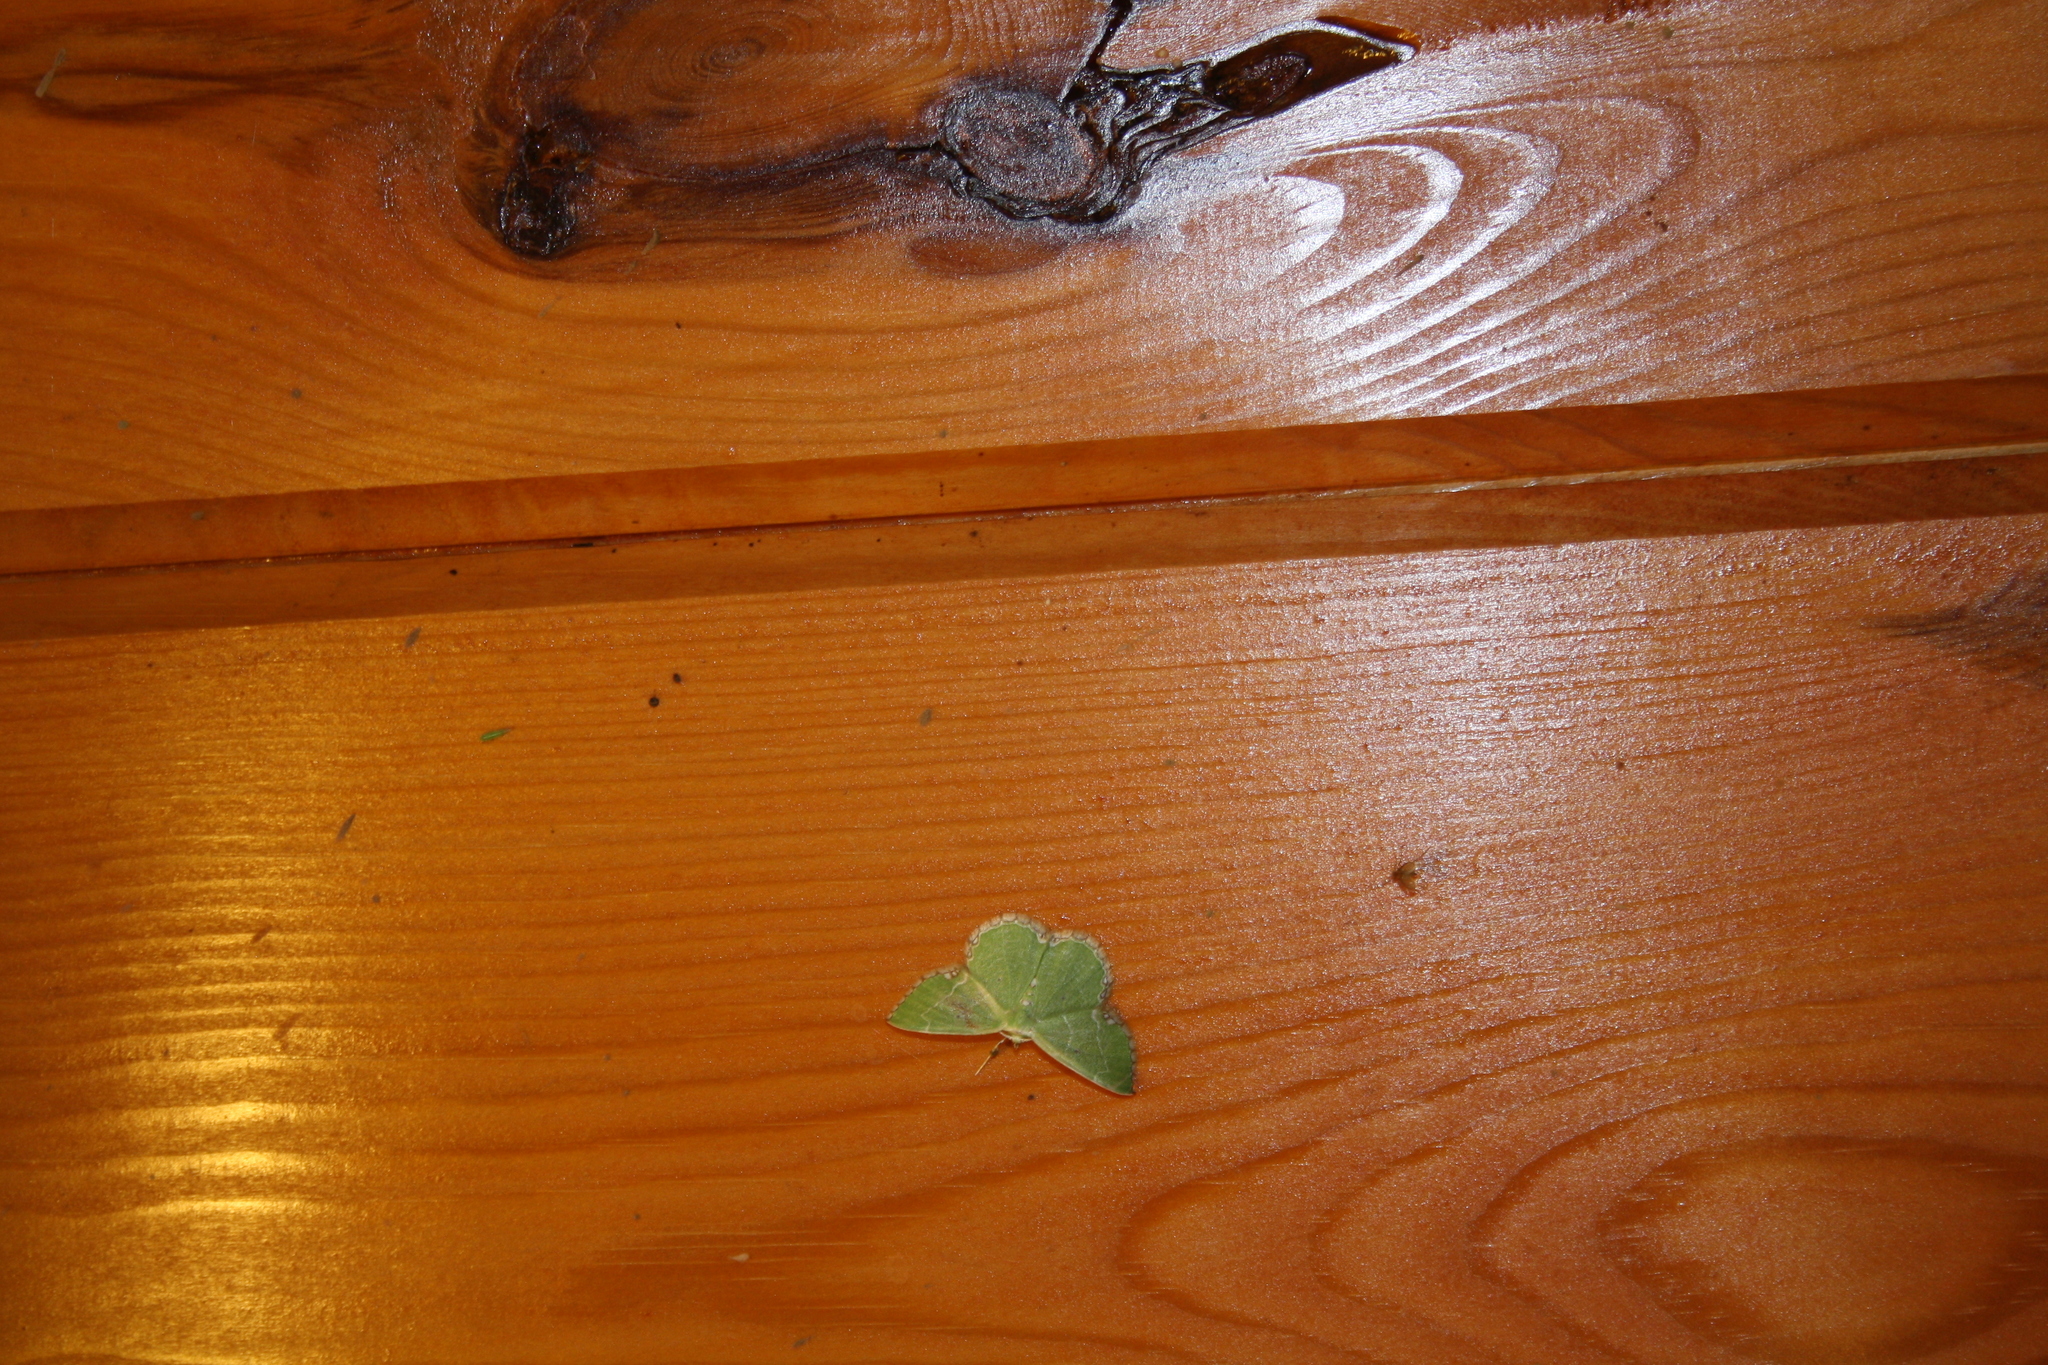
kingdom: Animalia
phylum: Arthropoda
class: Insecta
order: Lepidoptera
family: Geometridae
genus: Proteuchloris
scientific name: Proteuchloris neriaria
